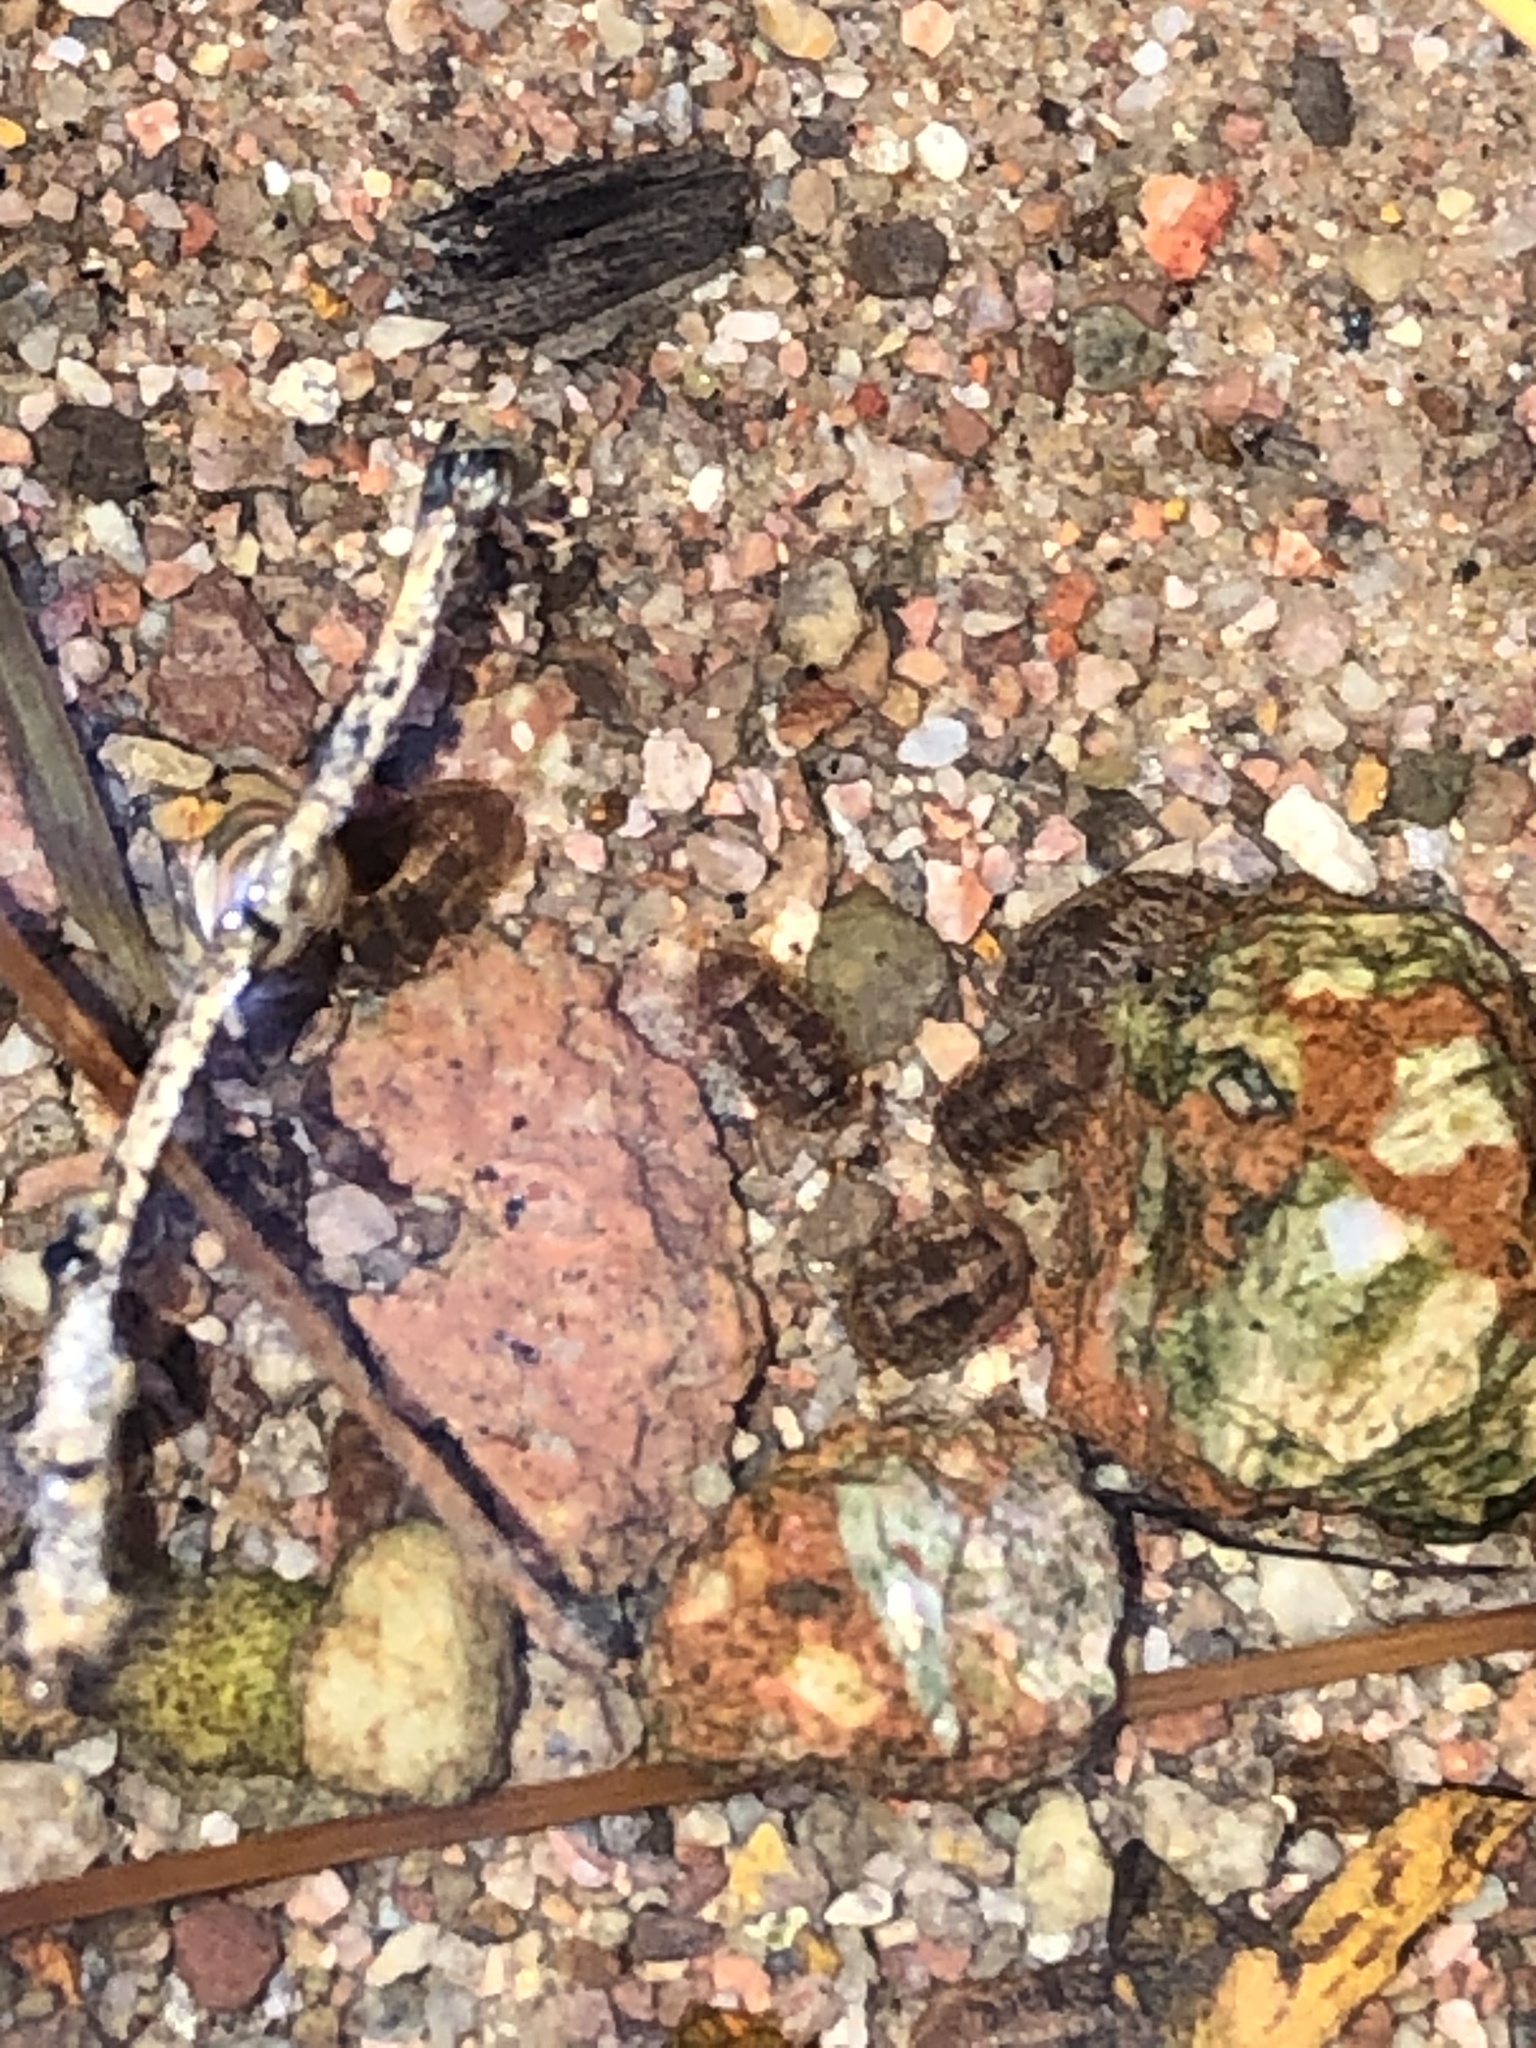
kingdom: Animalia
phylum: Arthropoda
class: Malacostraca
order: Isopoda
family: Sphaeromatidae
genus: Thermosphaeroma
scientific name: Thermosphaeroma thermophilum
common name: Socorro isopod
